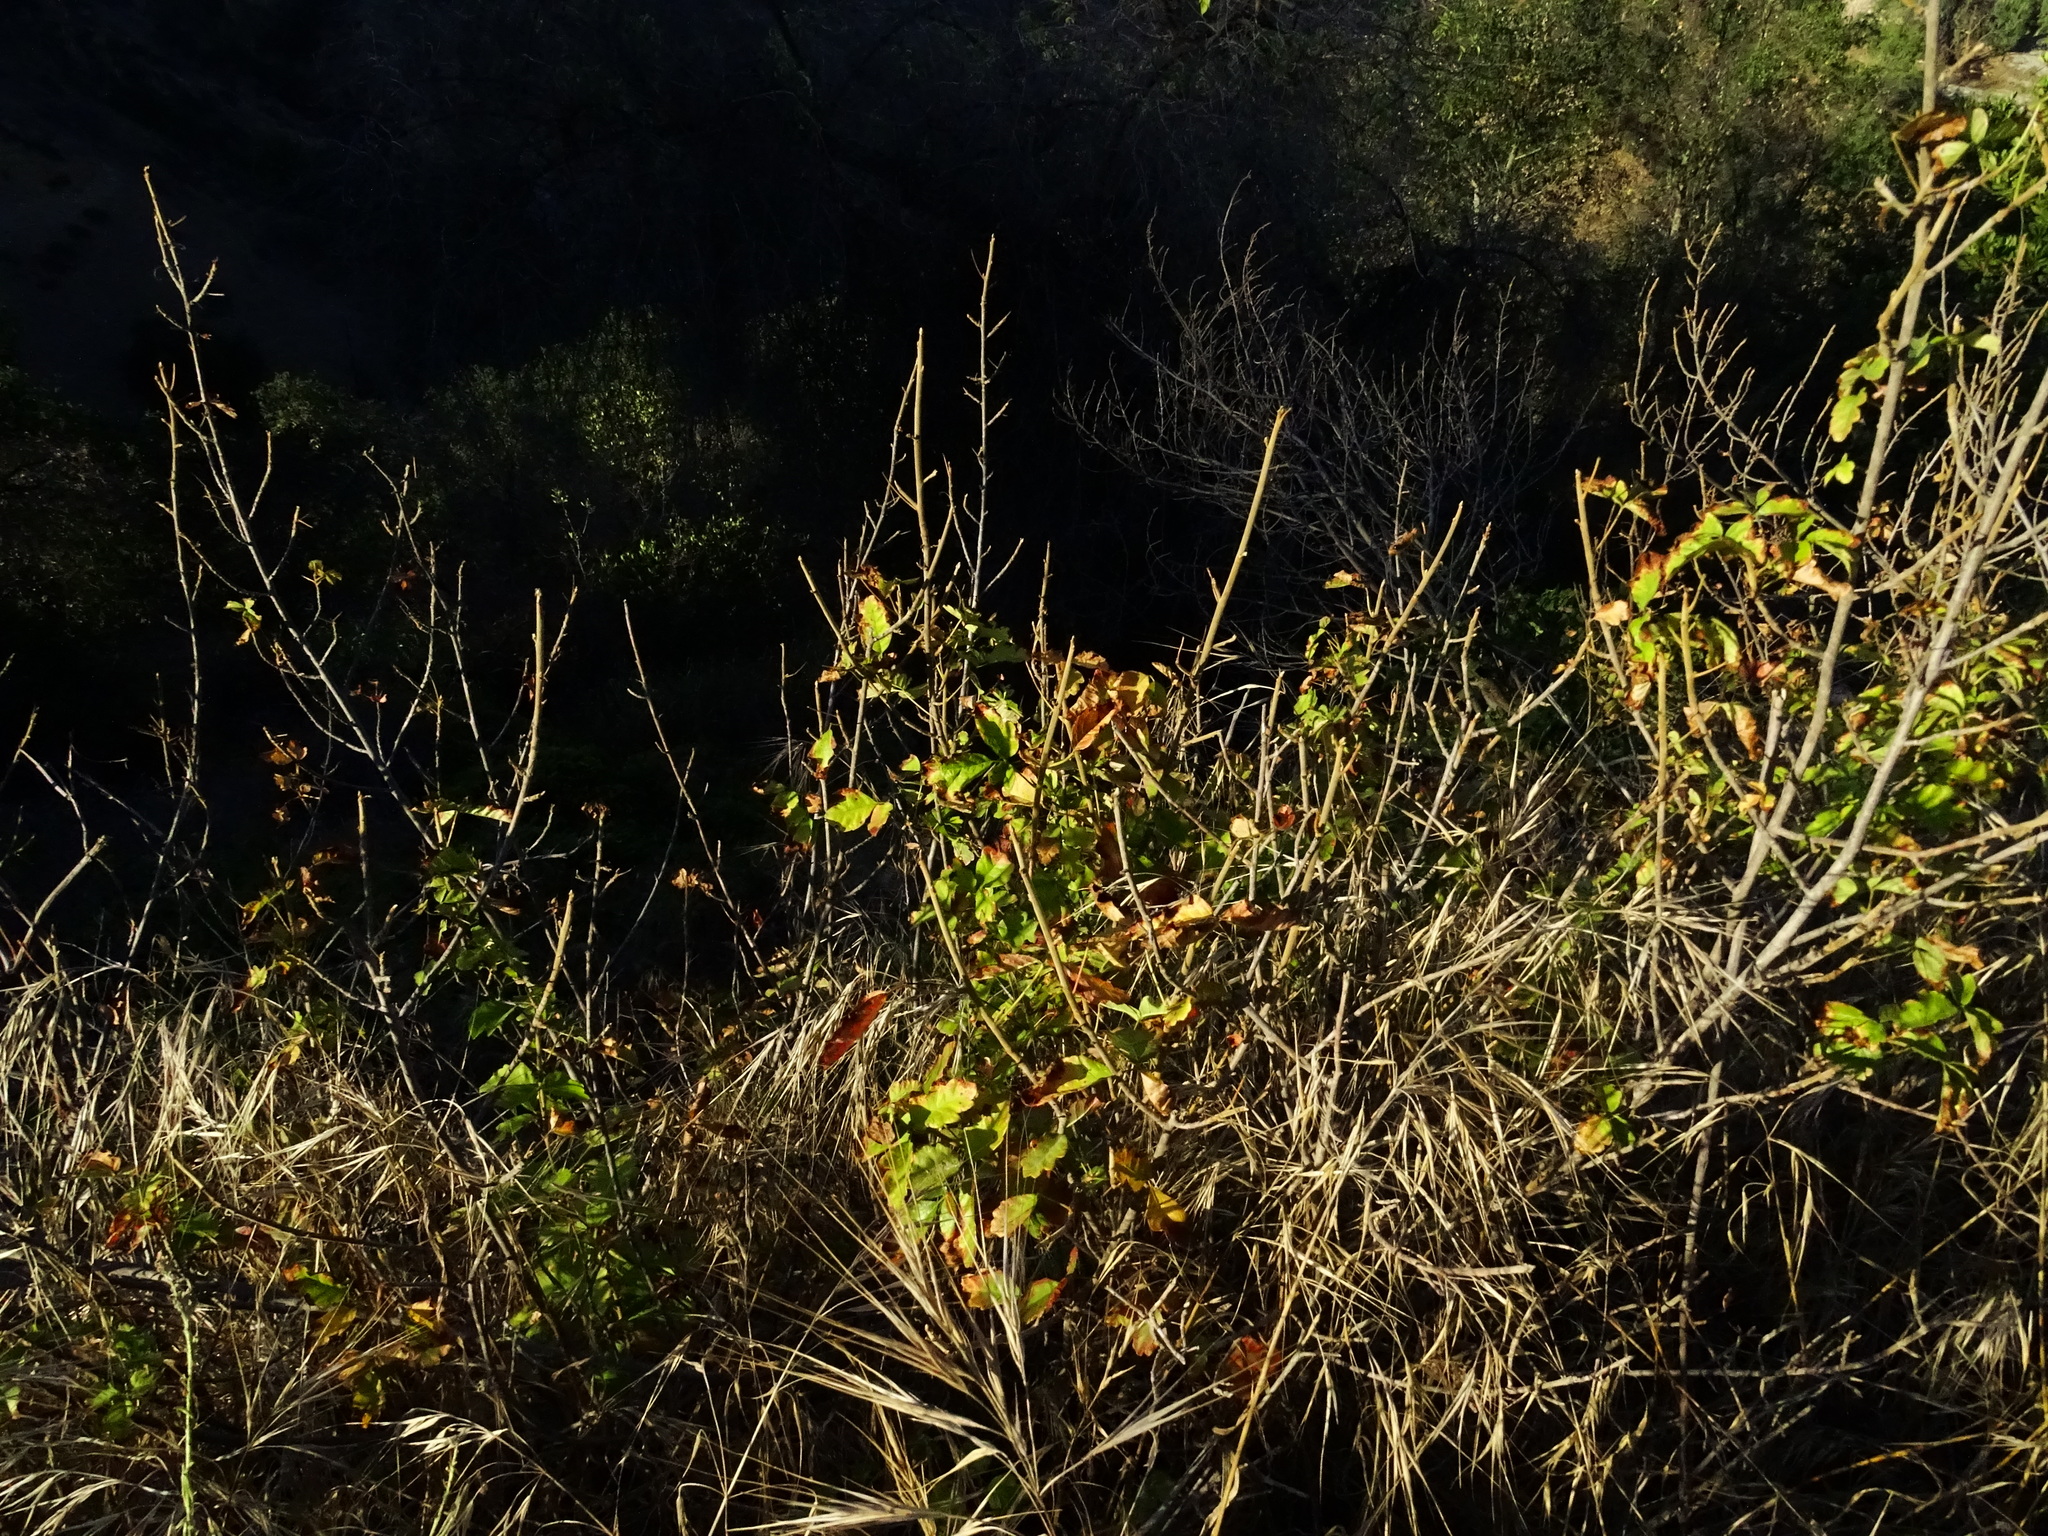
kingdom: Plantae
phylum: Tracheophyta
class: Magnoliopsida
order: Sapindales
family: Anacardiaceae
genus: Toxicodendron
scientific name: Toxicodendron diversilobum
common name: Pacific poison-oak
